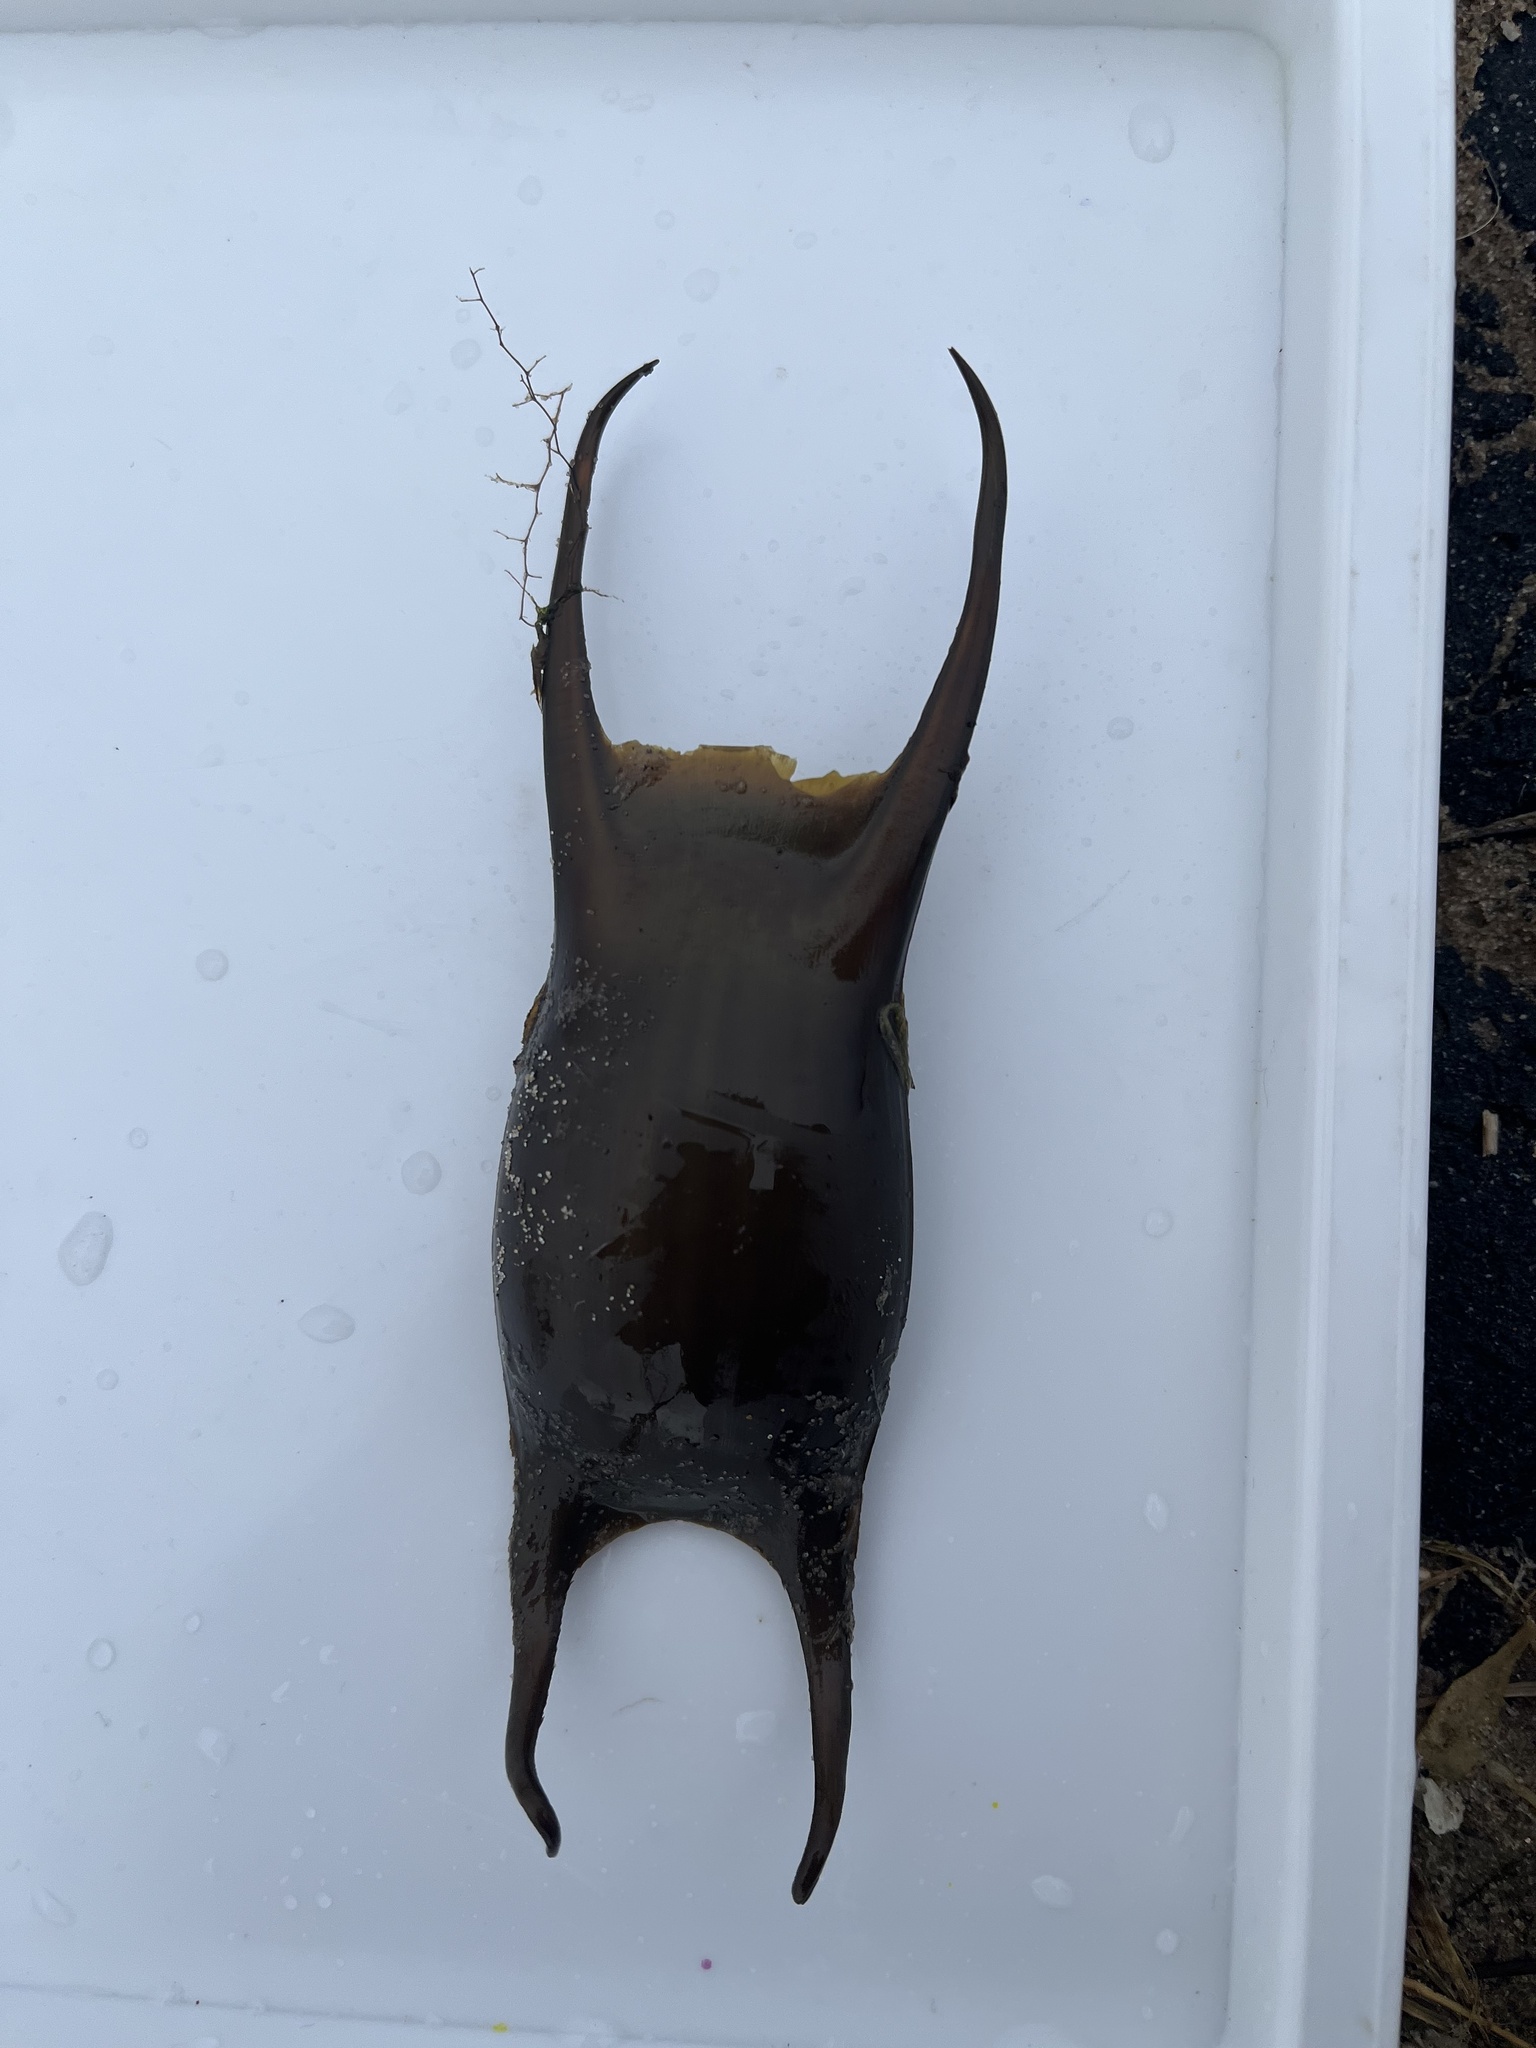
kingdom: Animalia
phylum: Chordata
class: Elasmobranchii
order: Rajiformes
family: Rajidae
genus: Raja
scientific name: Raja montagui
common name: Spotted ray
